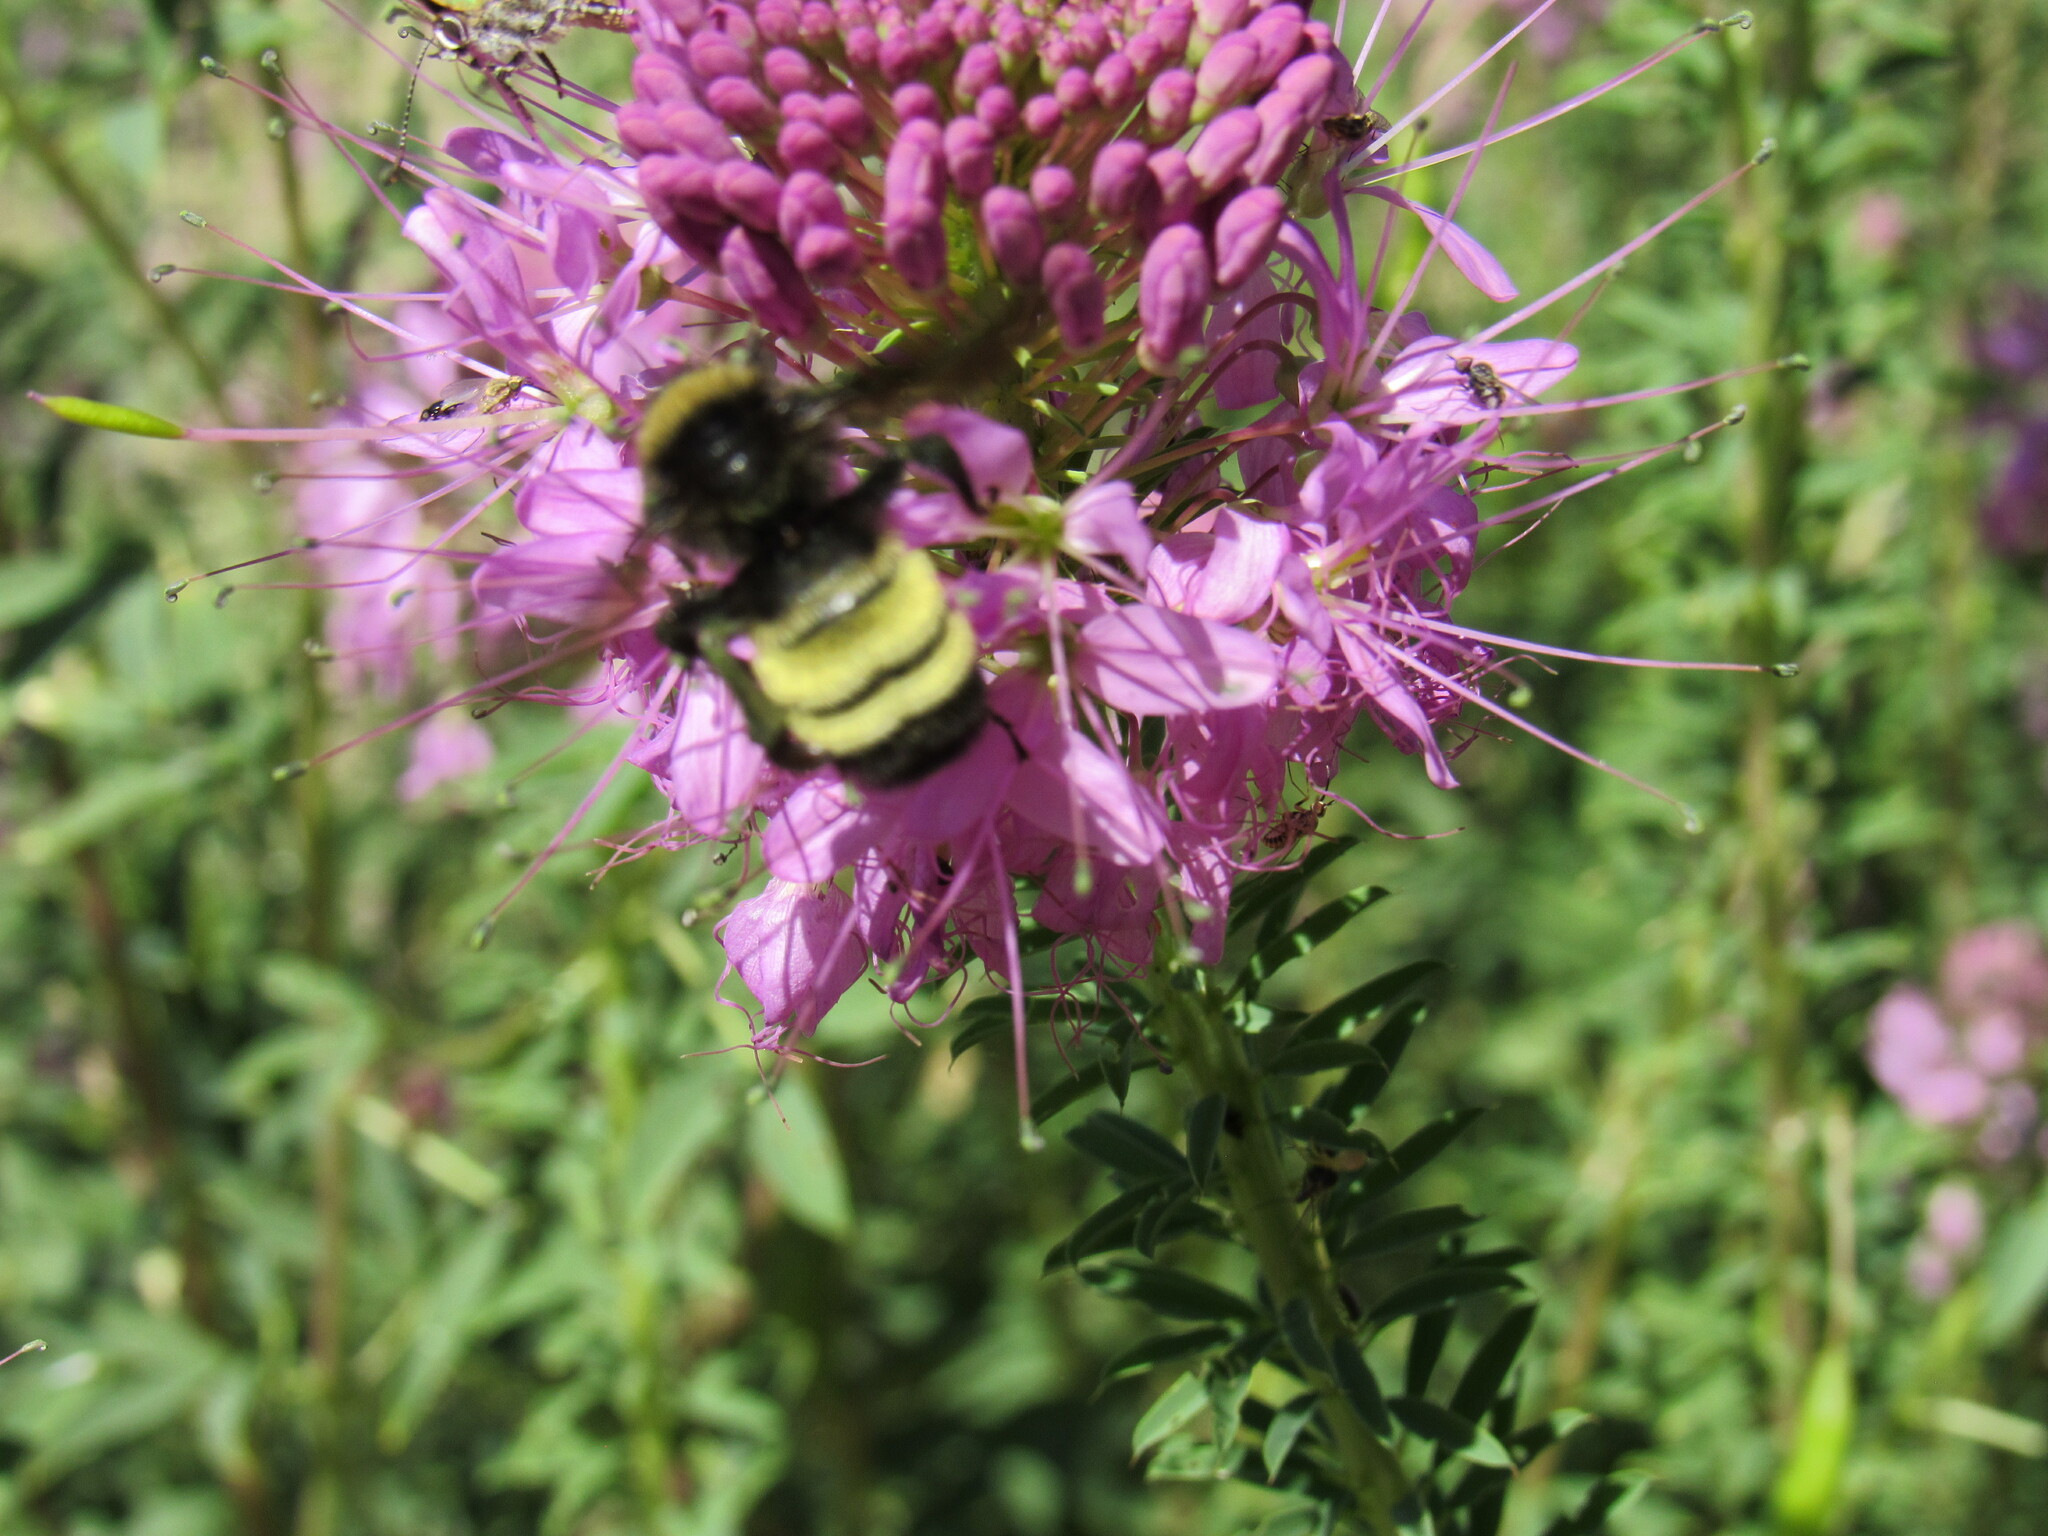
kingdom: Animalia
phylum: Arthropoda
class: Insecta
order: Hymenoptera
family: Apidae
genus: Bombus
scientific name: Bombus pensylvanicus
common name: Bumble bee
